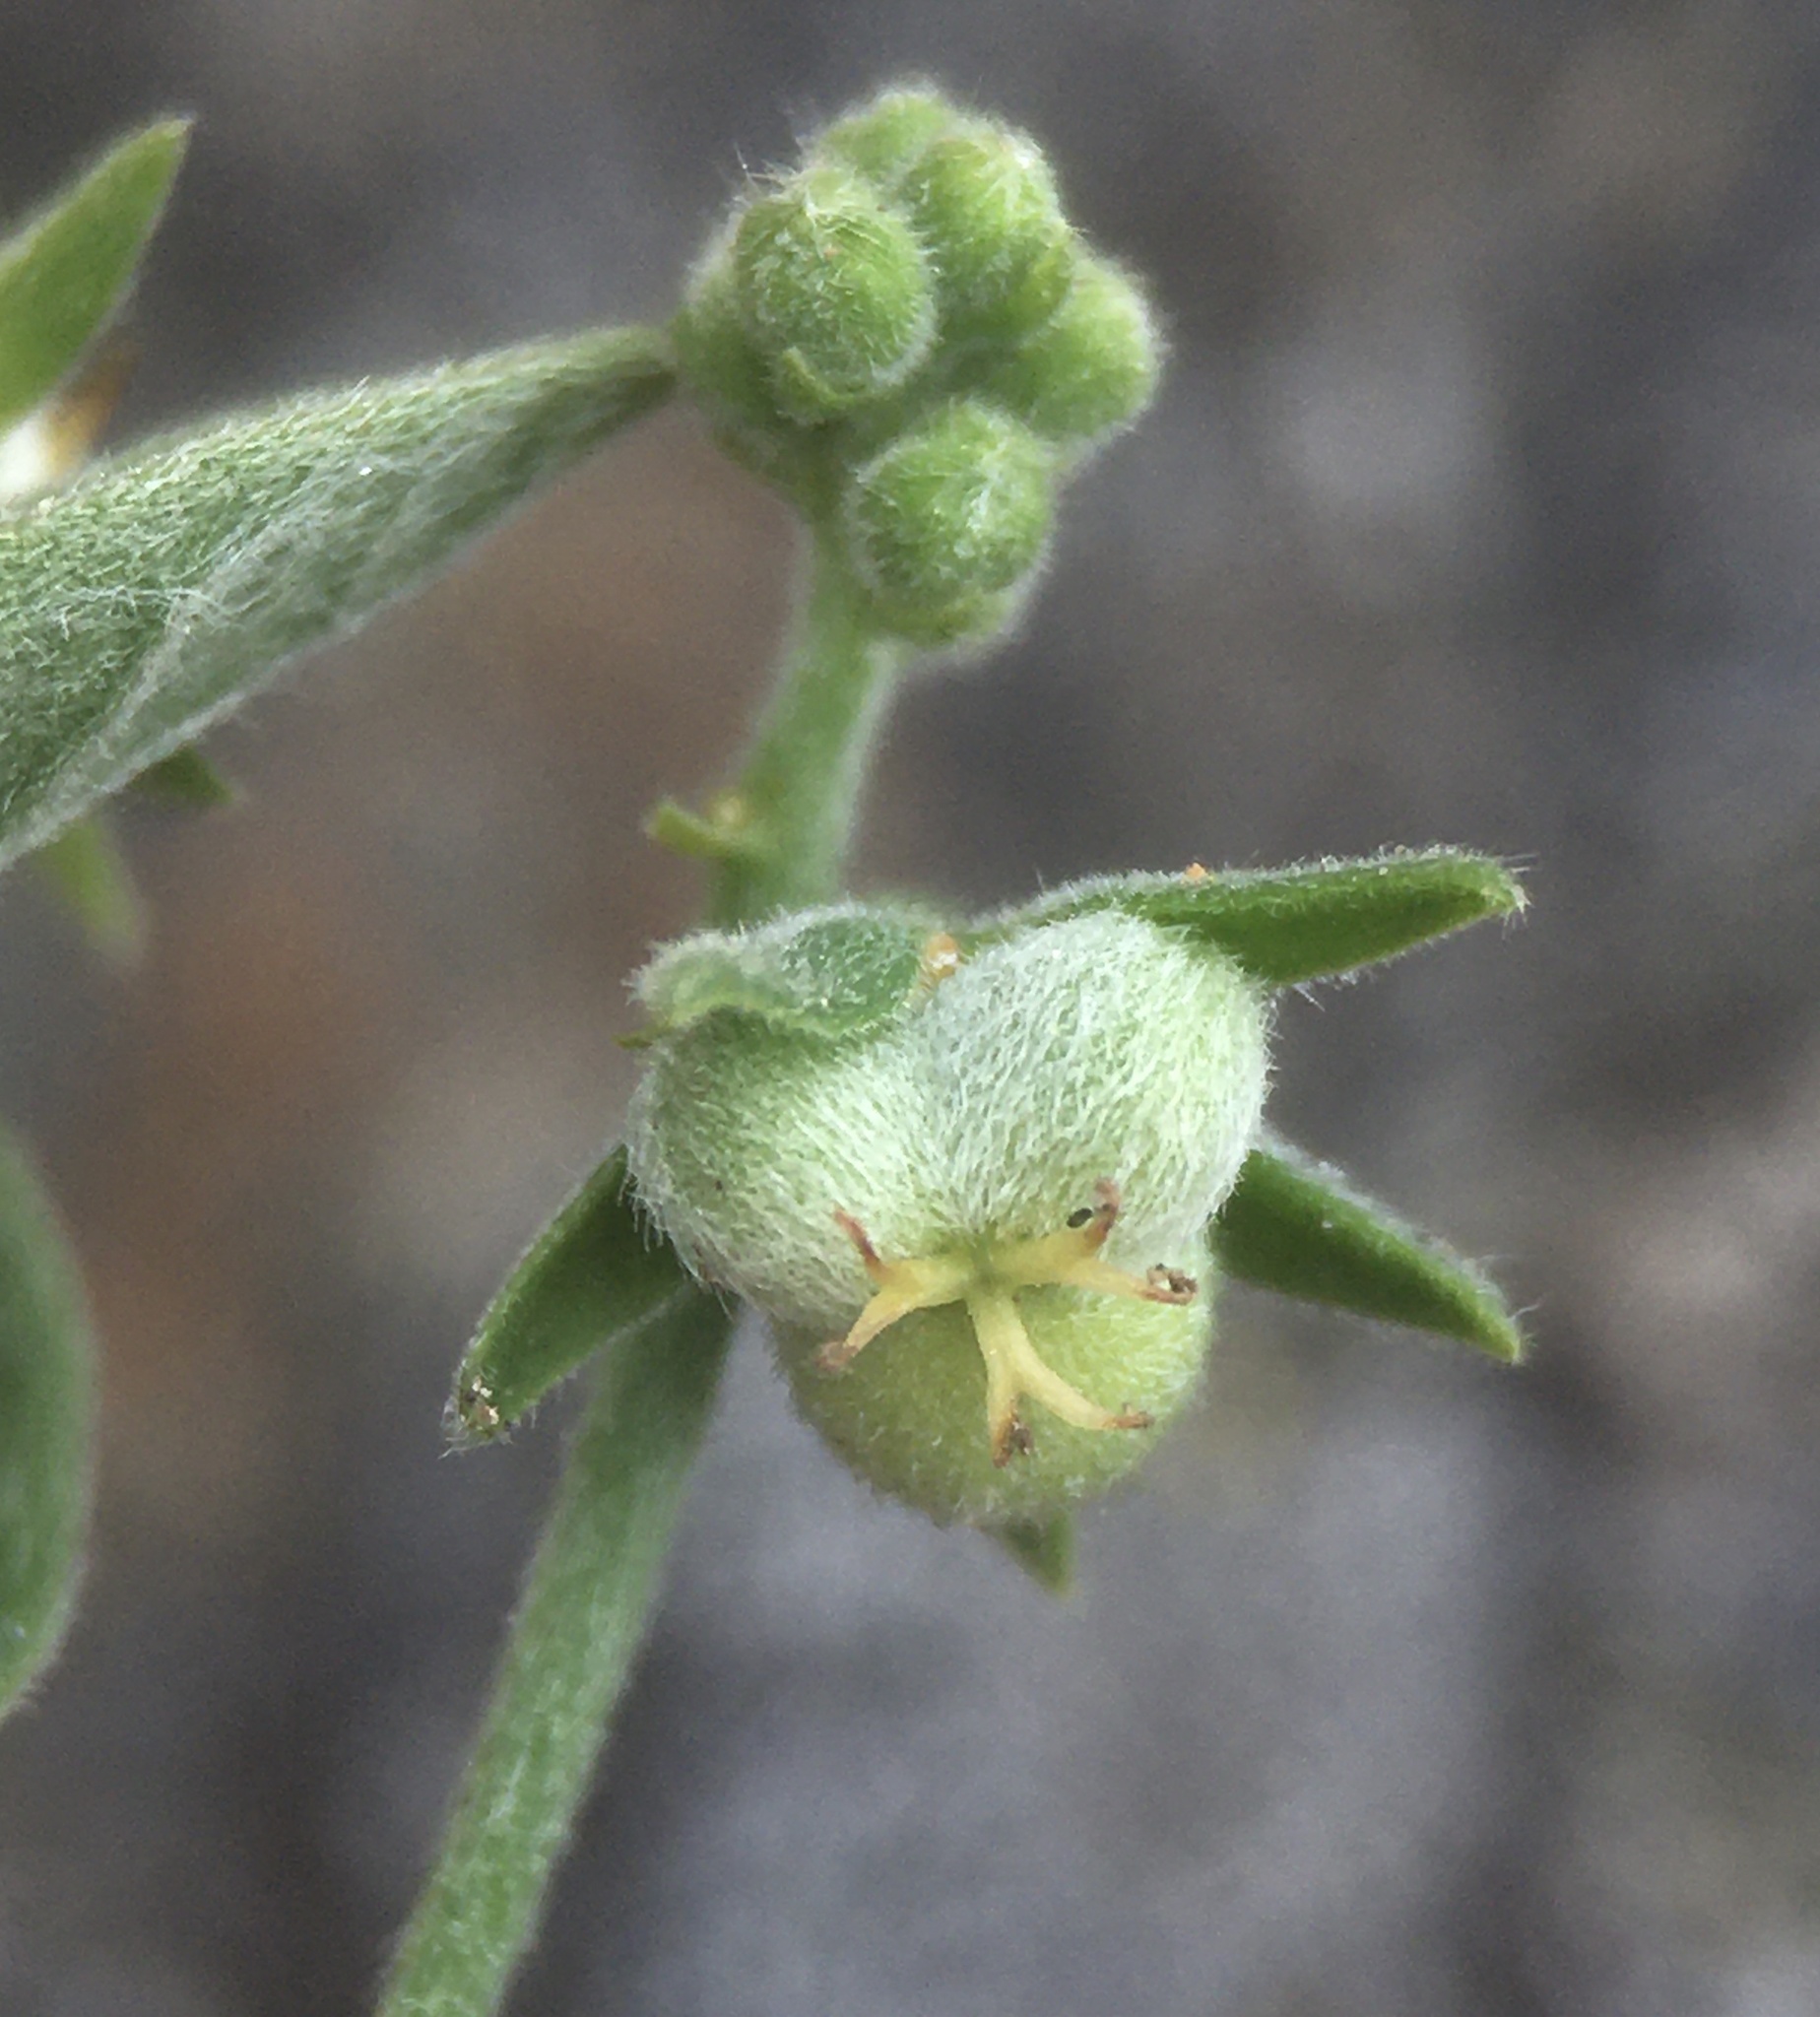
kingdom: Plantae
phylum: Tracheophyta
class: Magnoliopsida
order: Malpighiales
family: Euphorbiaceae
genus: Chiropetalum
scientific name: Chiropetalum canescens
